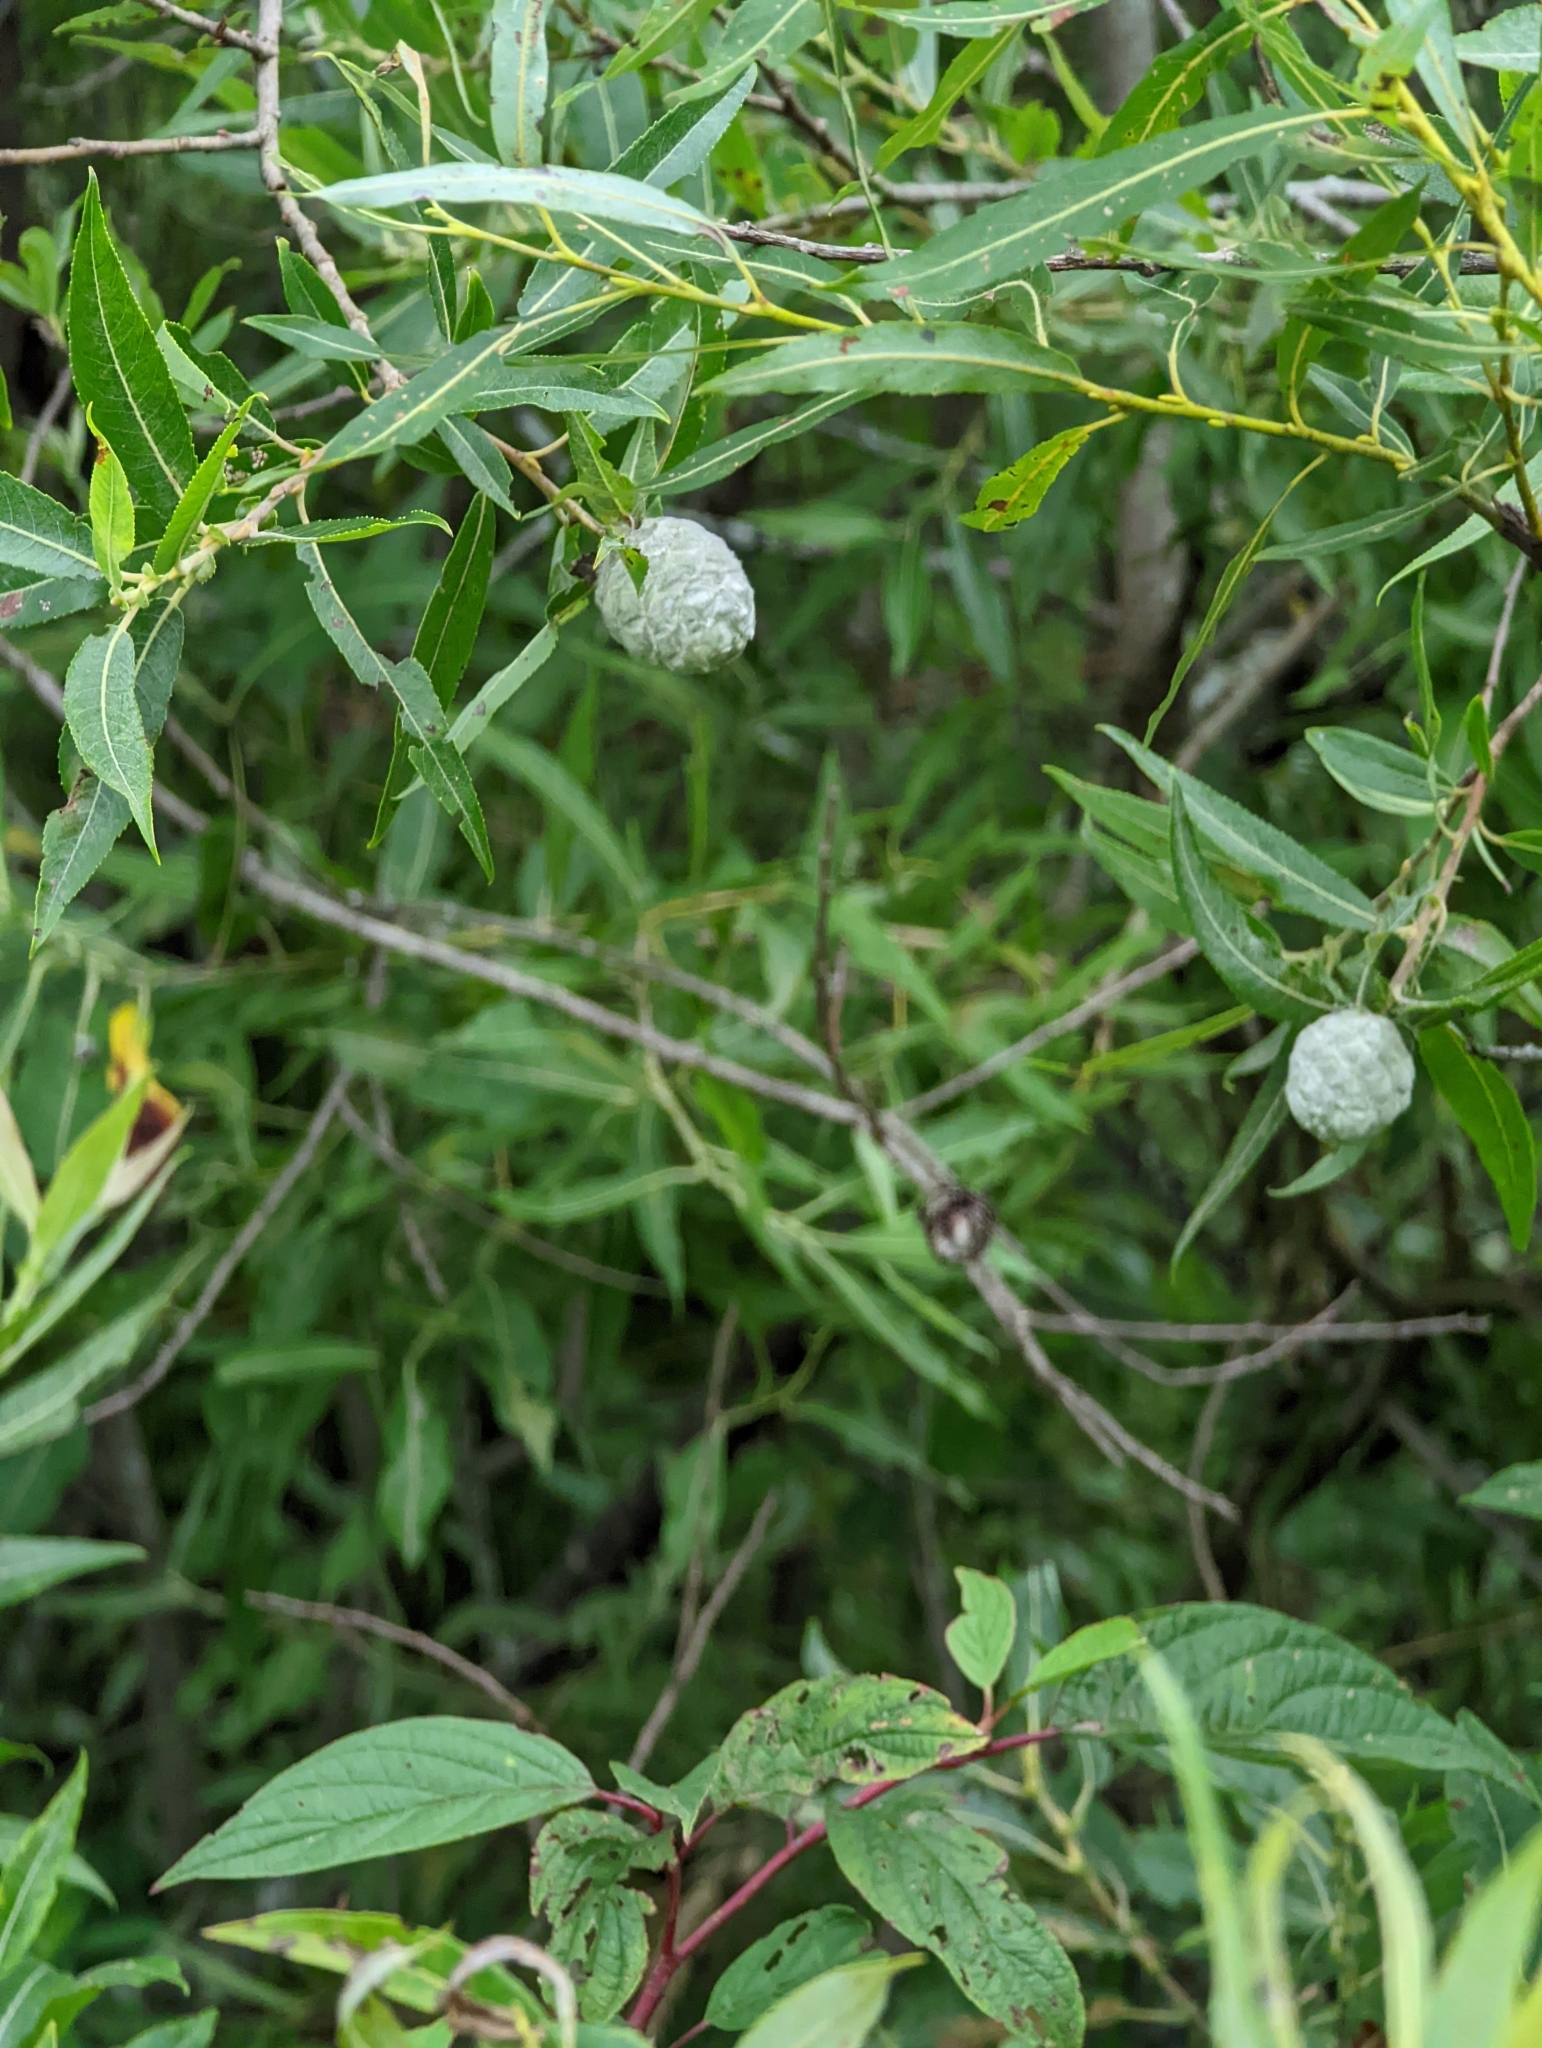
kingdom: Animalia
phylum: Arthropoda
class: Insecta
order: Diptera
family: Cecidomyiidae
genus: Rabdophaga
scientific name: Rabdophaga strobiloides
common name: Willow pinecone gall midge
